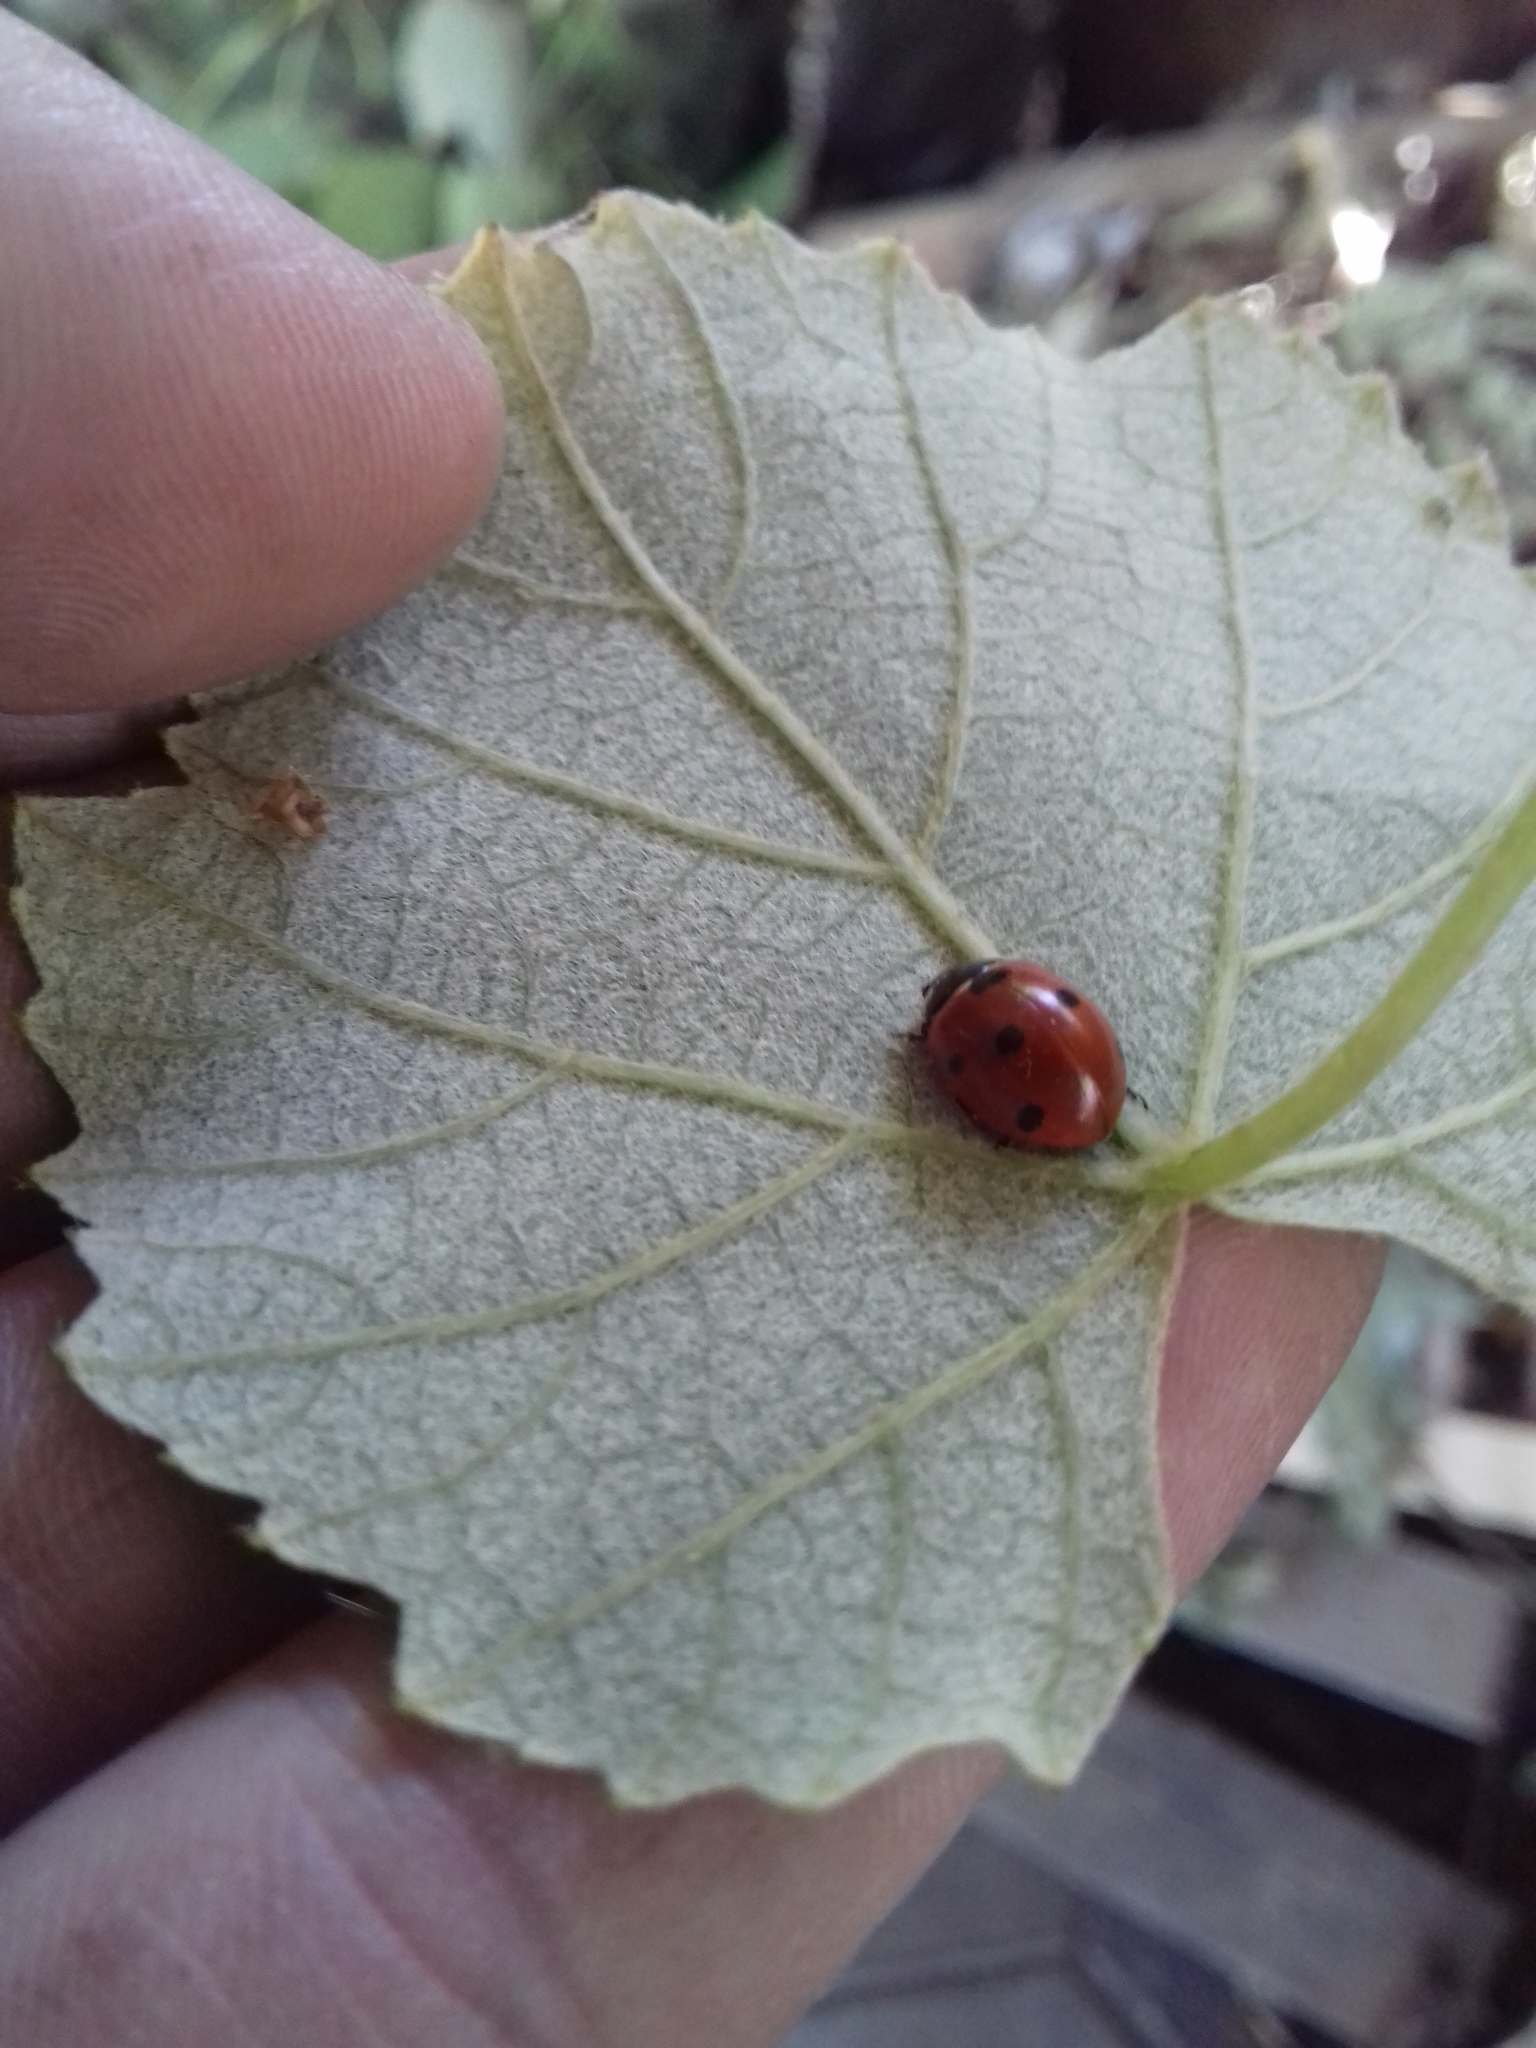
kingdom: Animalia
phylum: Arthropoda
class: Insecta
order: Coleoptera
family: Coccinellidae
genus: Coccinella
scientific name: Coccinella septempunctata
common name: Sevenspotted lady beetle
